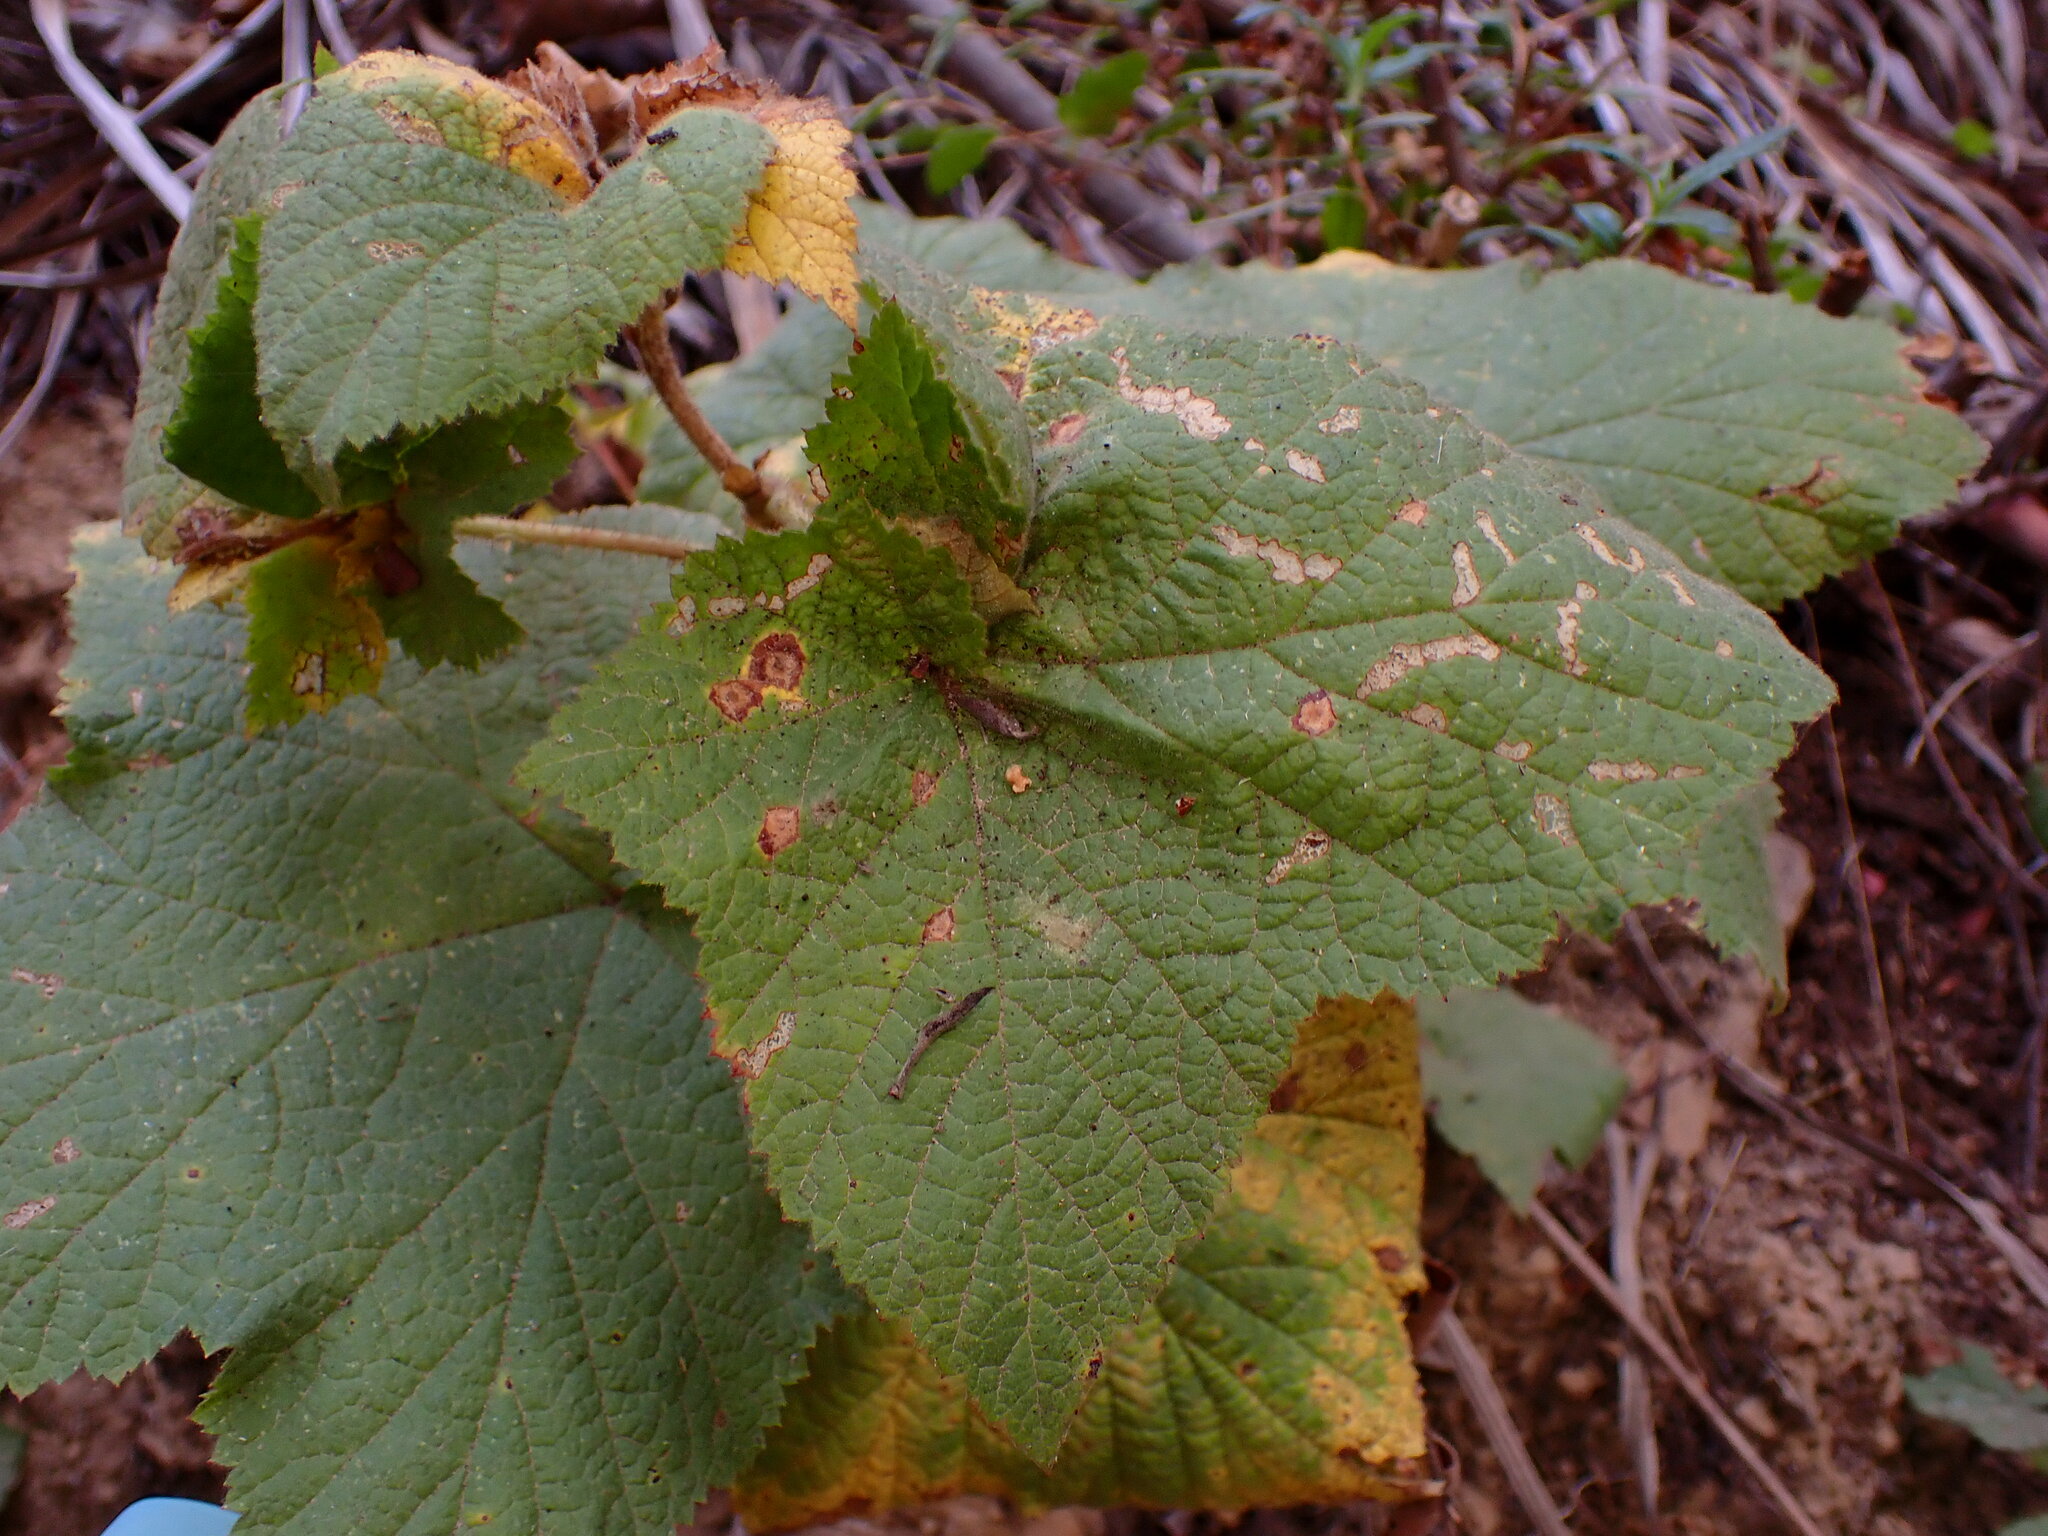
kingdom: Plantae
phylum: Tracheophyta
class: Magnoliopsida
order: Rosales
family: Rosaceae
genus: Rubus
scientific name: Rubus parviflorus
